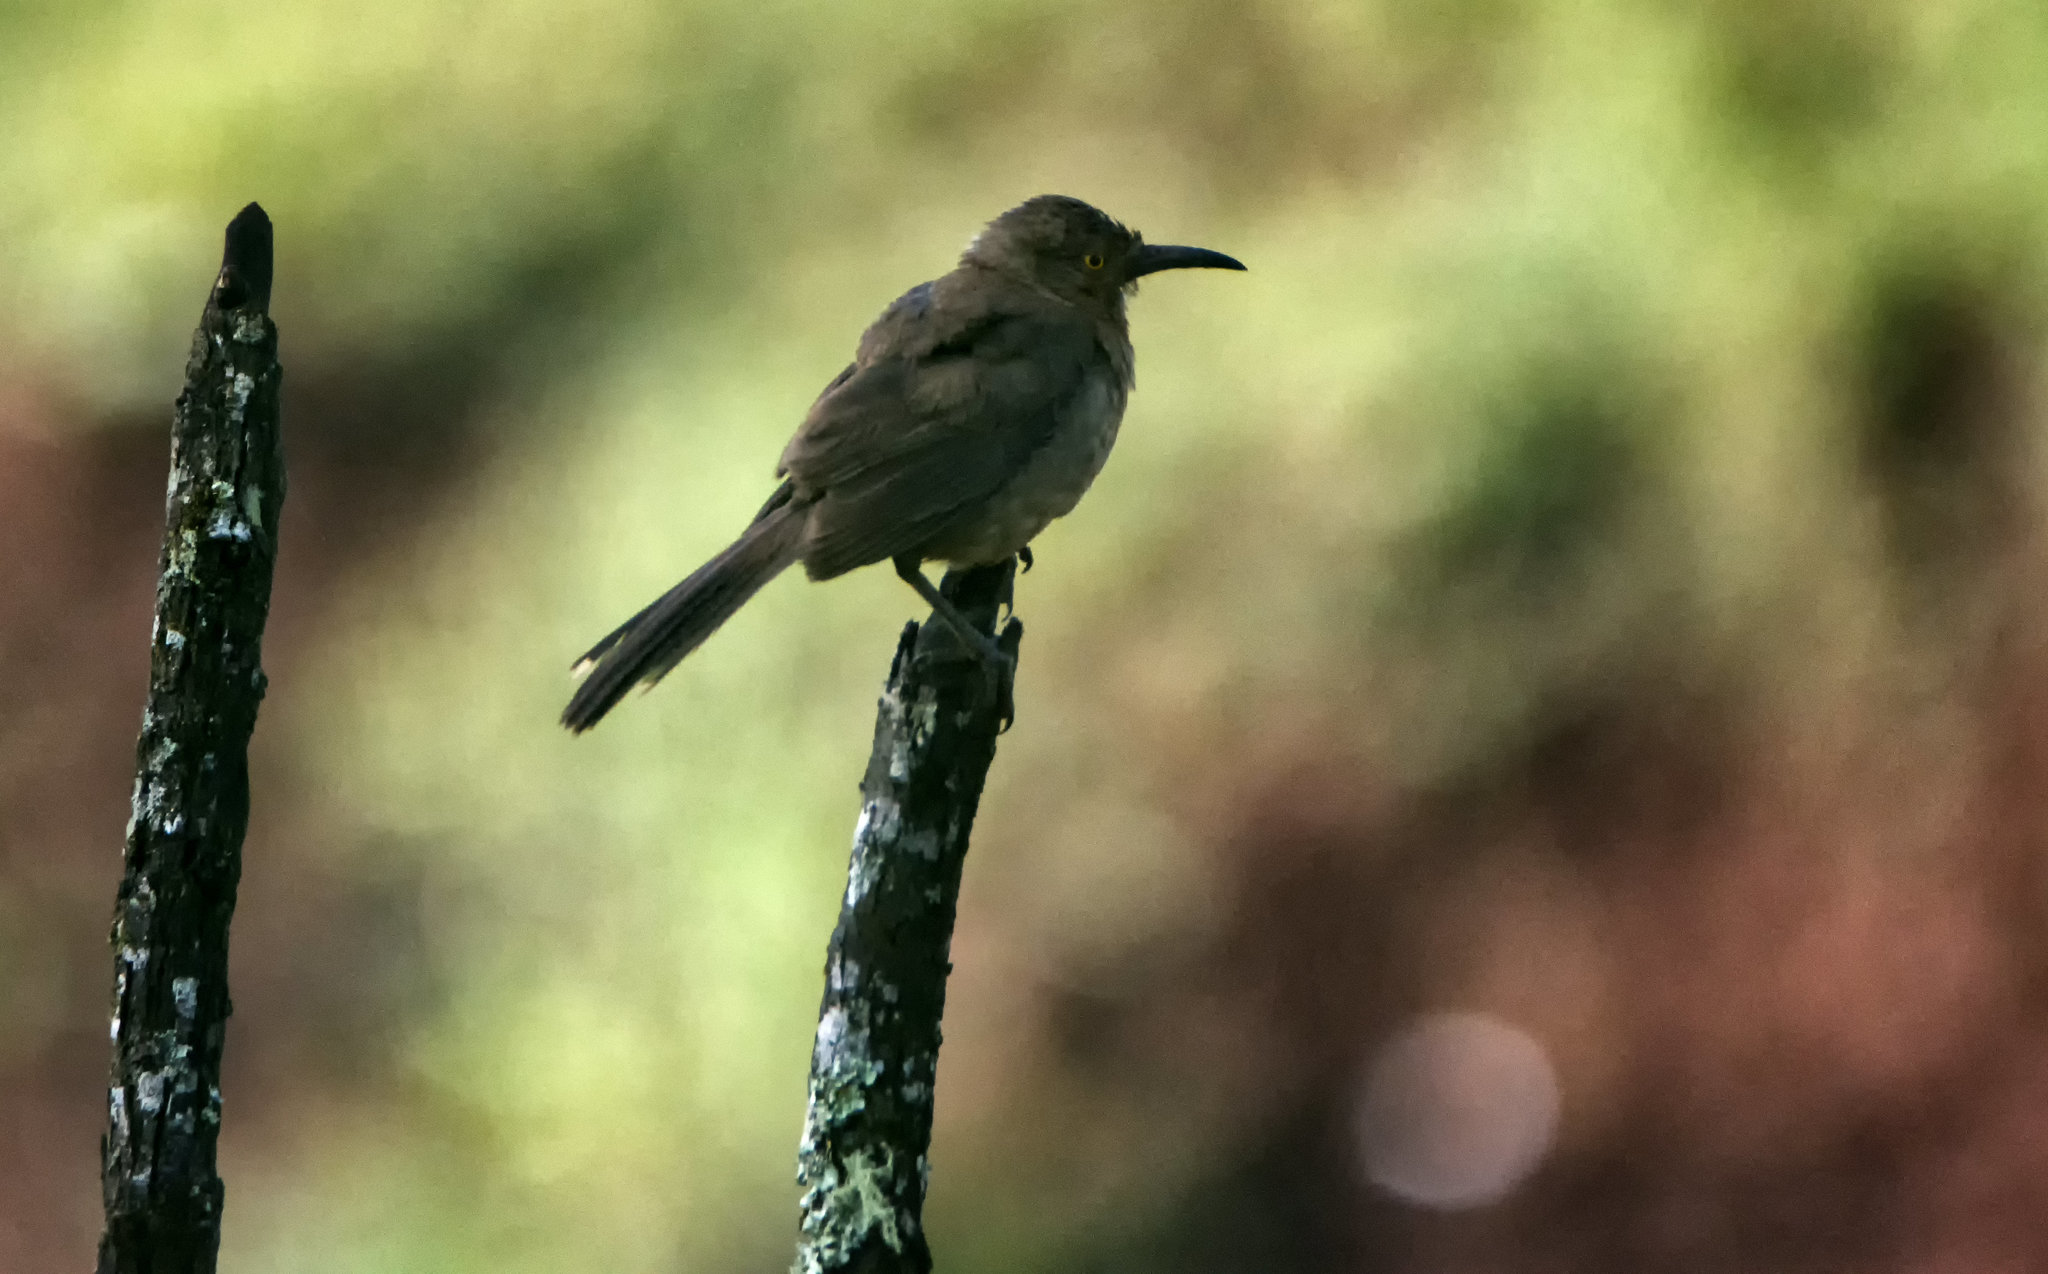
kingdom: Animalia
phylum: Chordata
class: Aves
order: Passeriformes
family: Mimidae
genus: Toxostoma
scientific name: Toxostoma curvirostre
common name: Curve-billed thrasher
